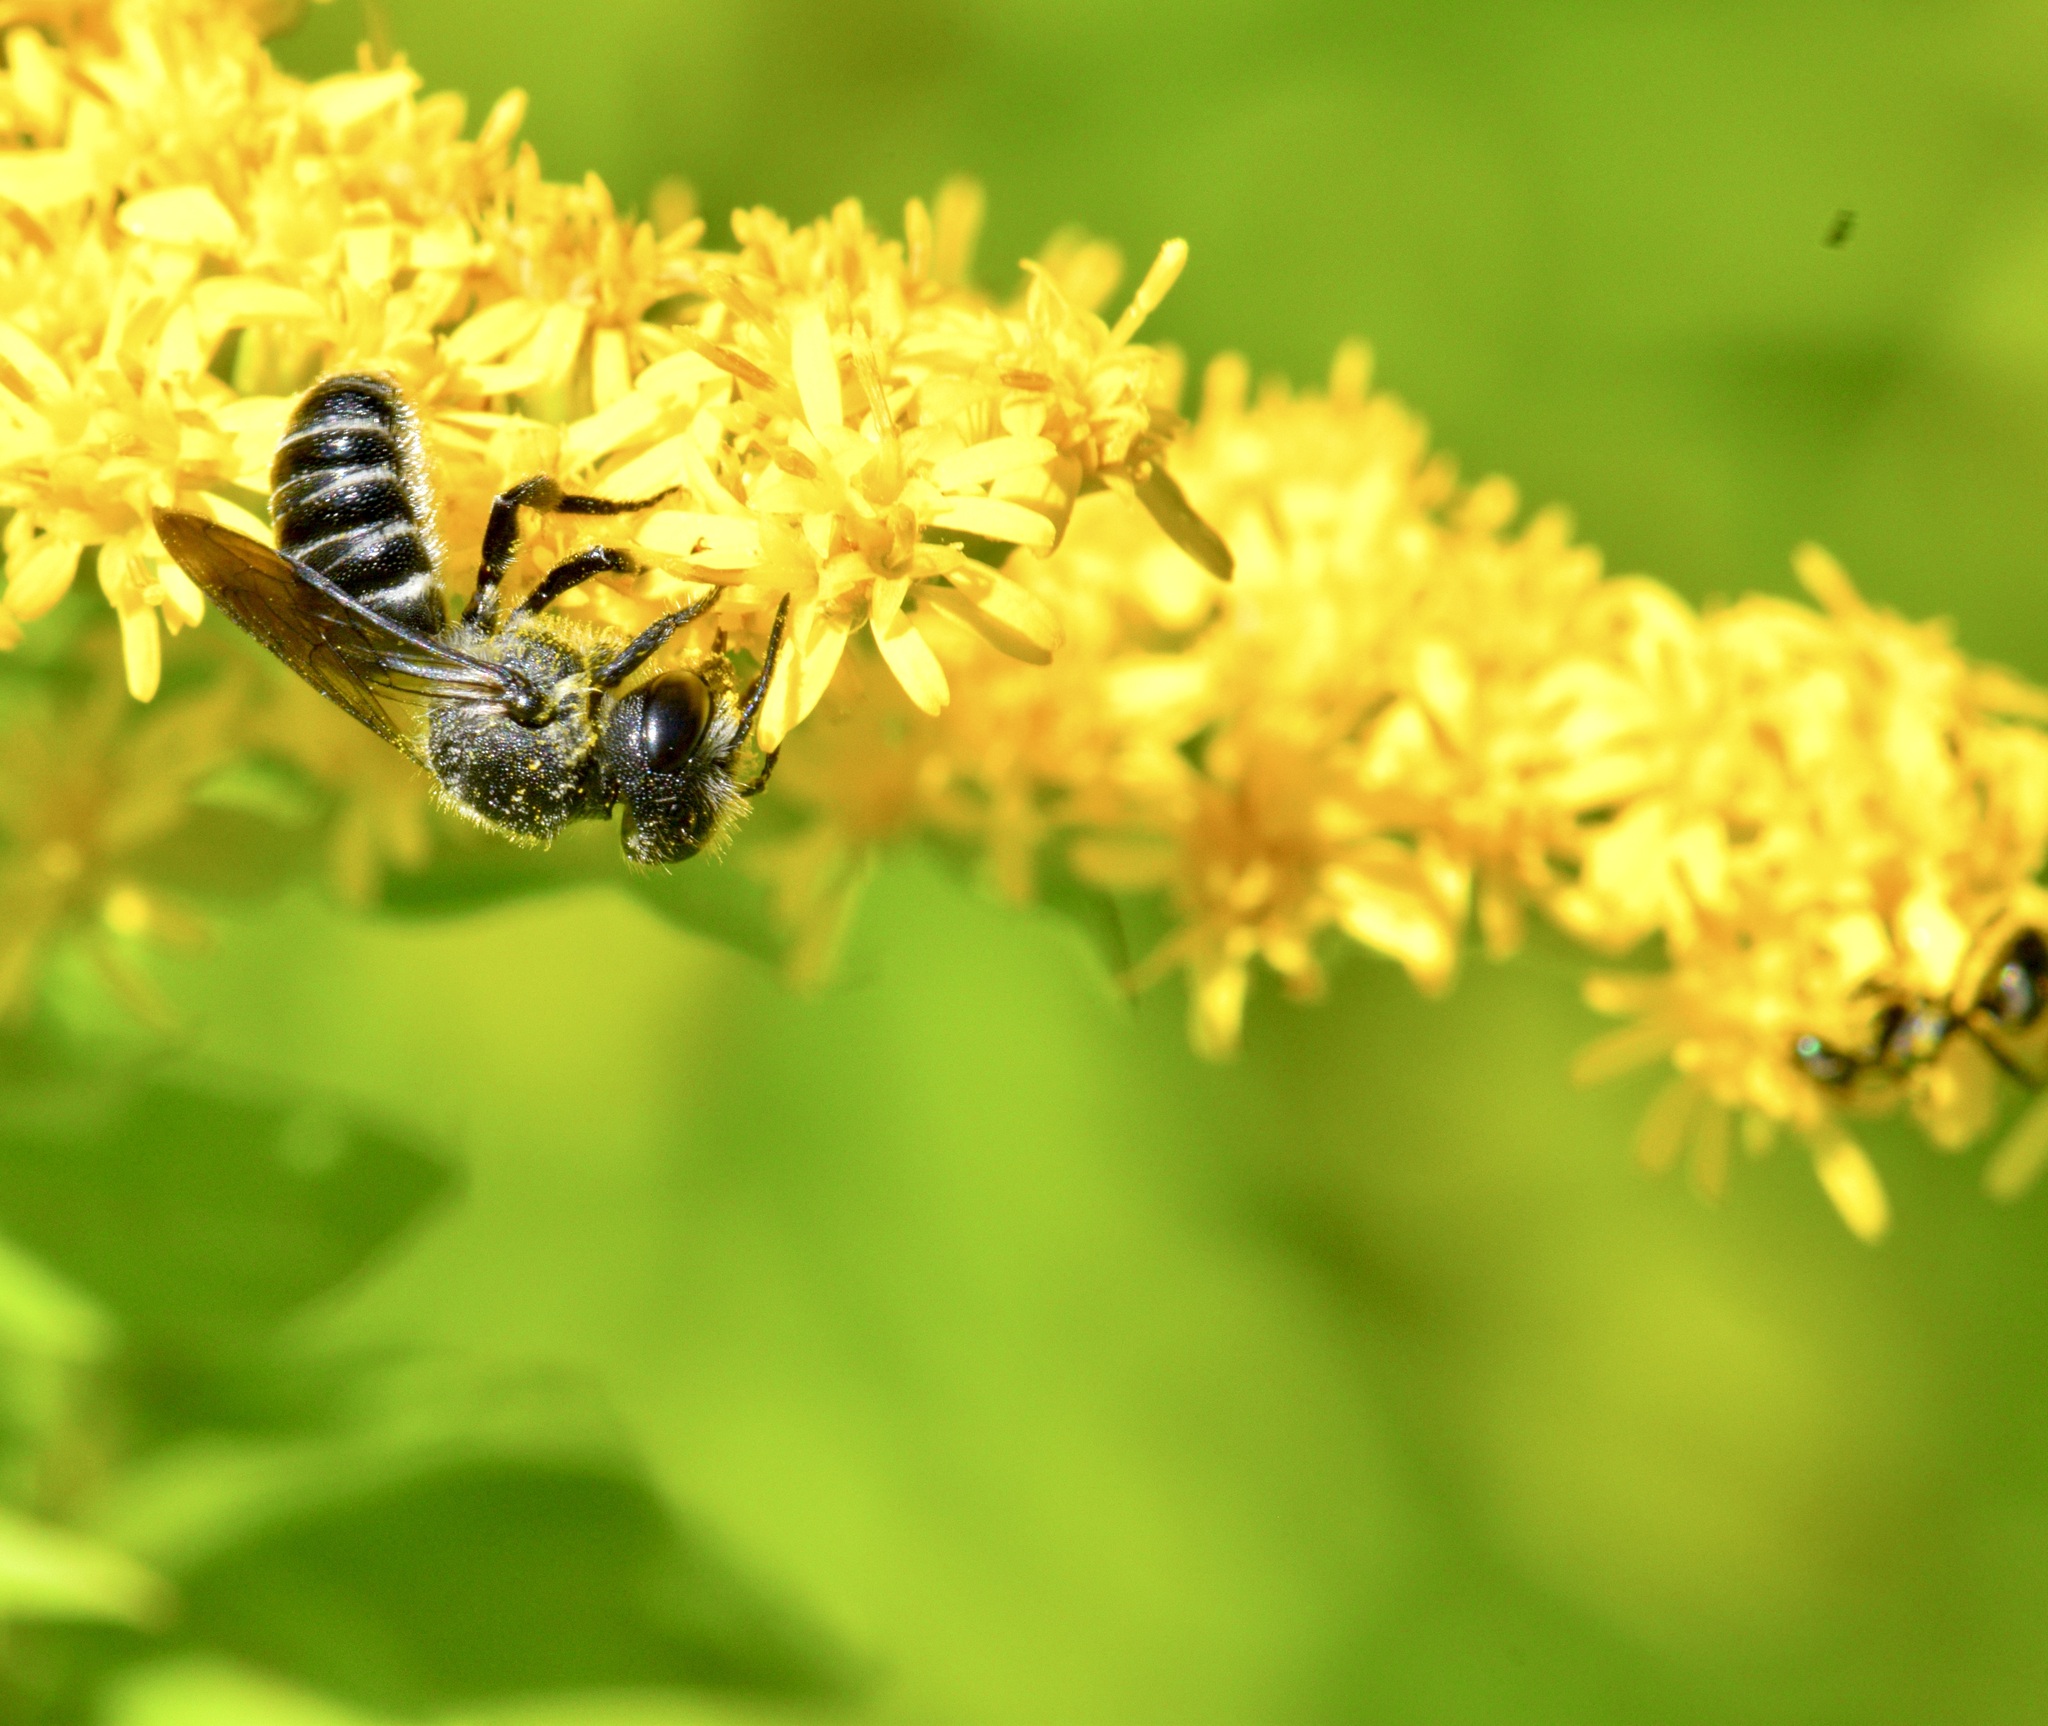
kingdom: Animalia
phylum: Arthropoda
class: Insecta
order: Hymenoptera
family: Megachilidae
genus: Megachile
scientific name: Megachile campanulae
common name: Bellflower resin bee
